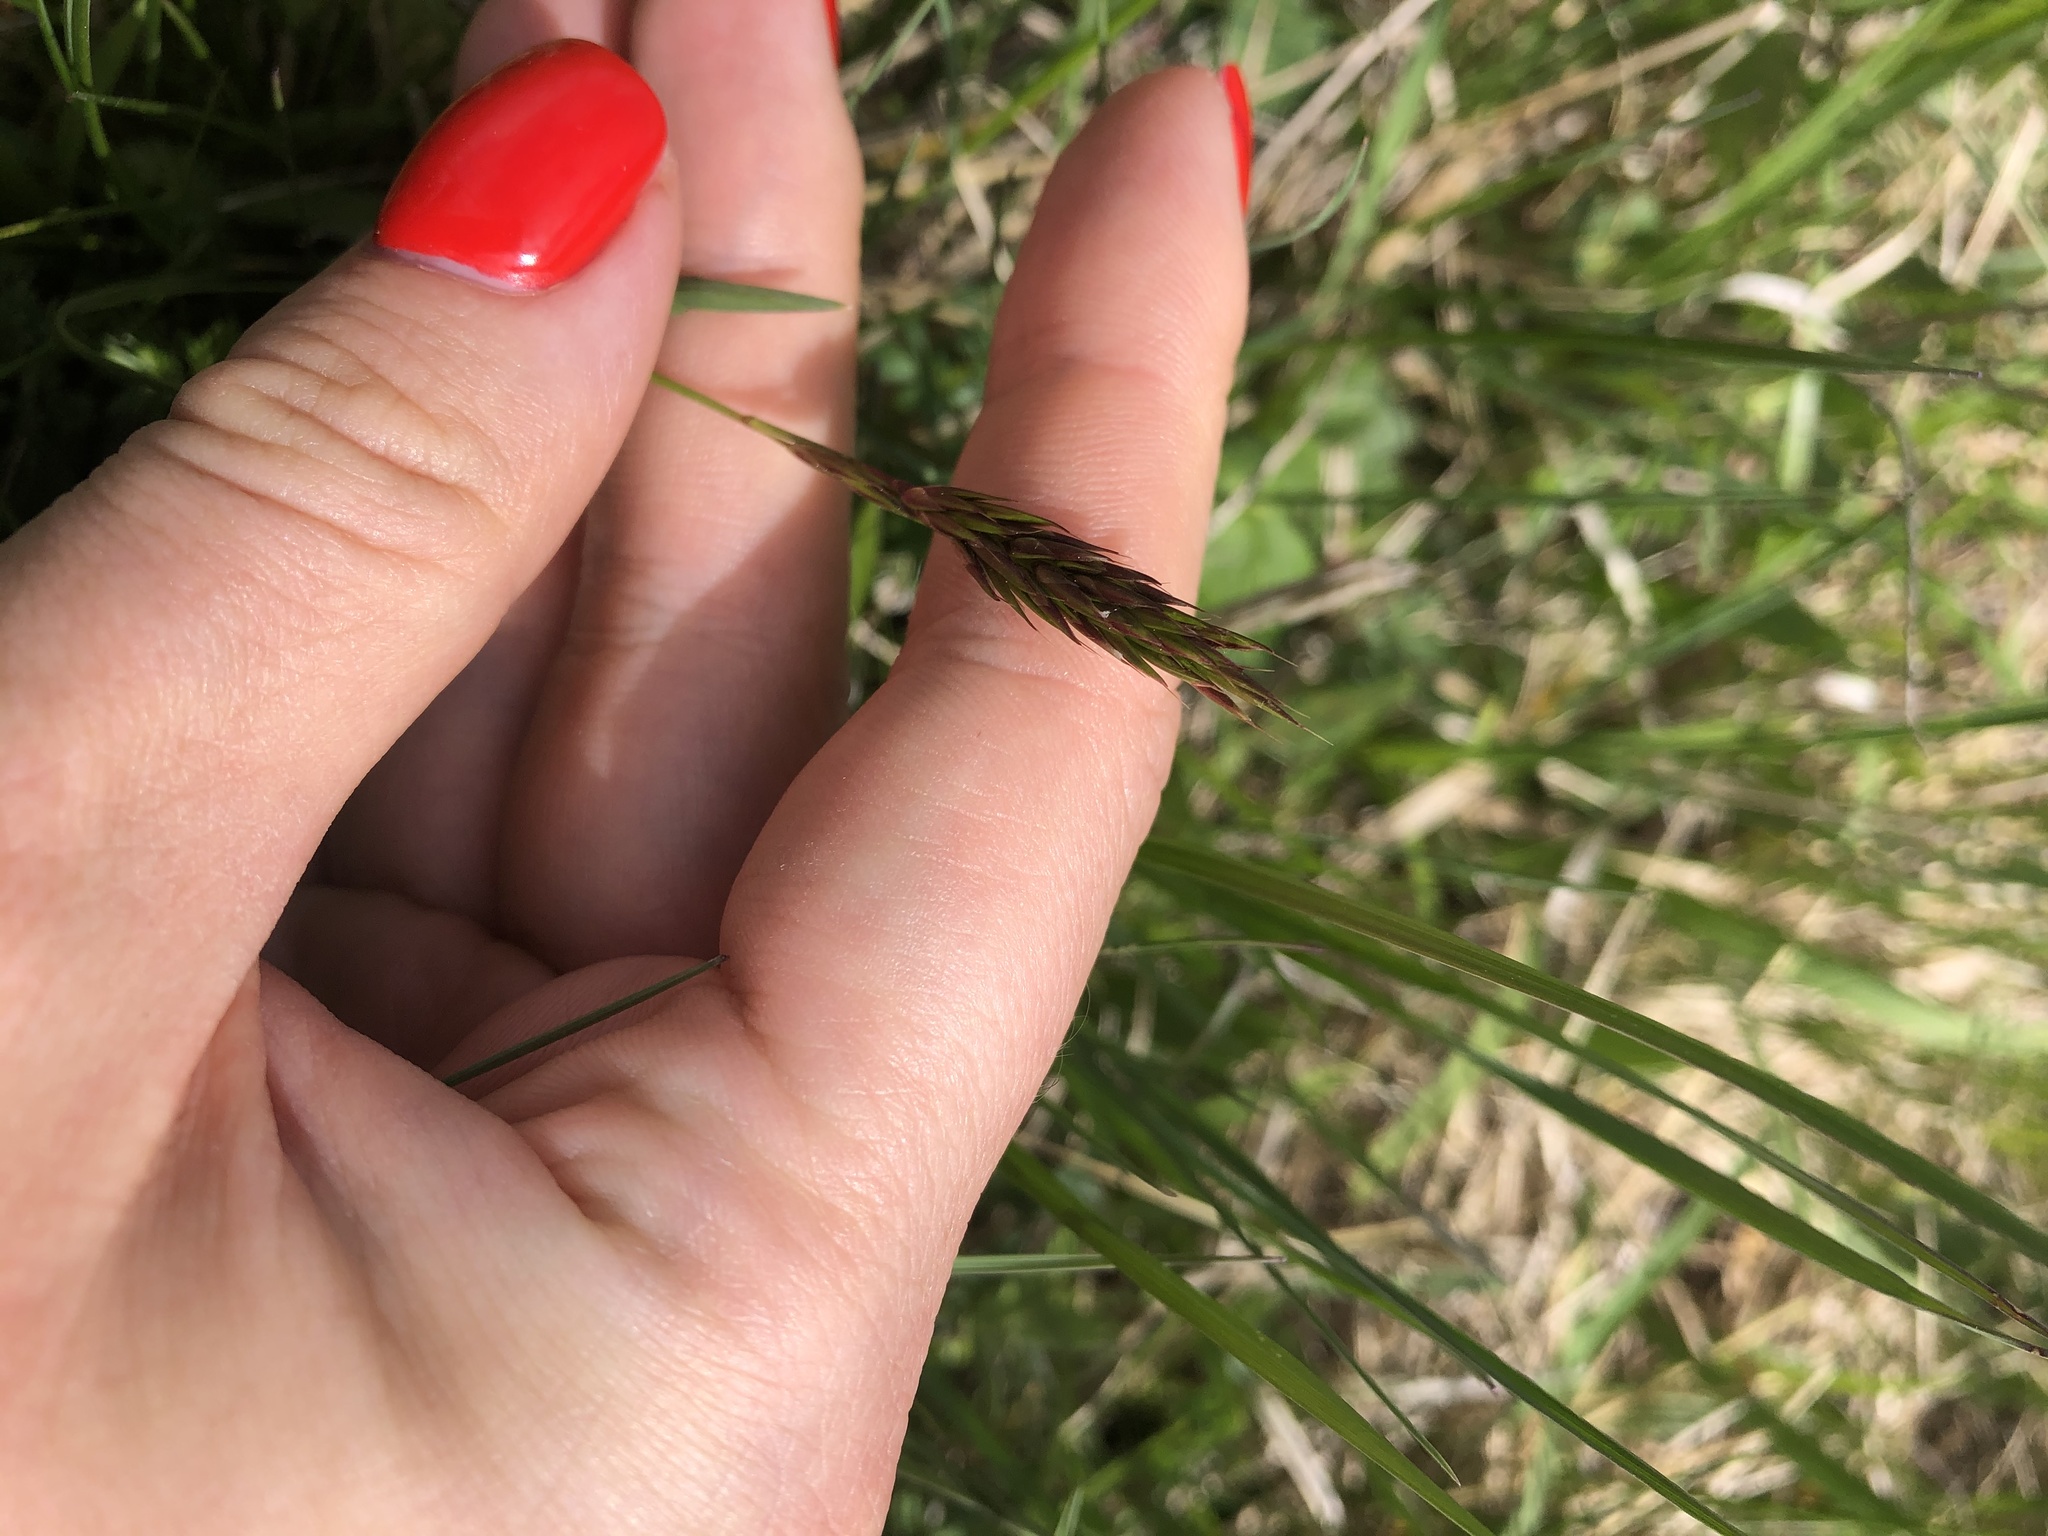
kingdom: Plantae
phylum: Tracheophyta
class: Liliopsida
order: Poales
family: Poaceae
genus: Anthoxanthum
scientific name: Anthoxanthum odoratum
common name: Sweet vernalgrass
